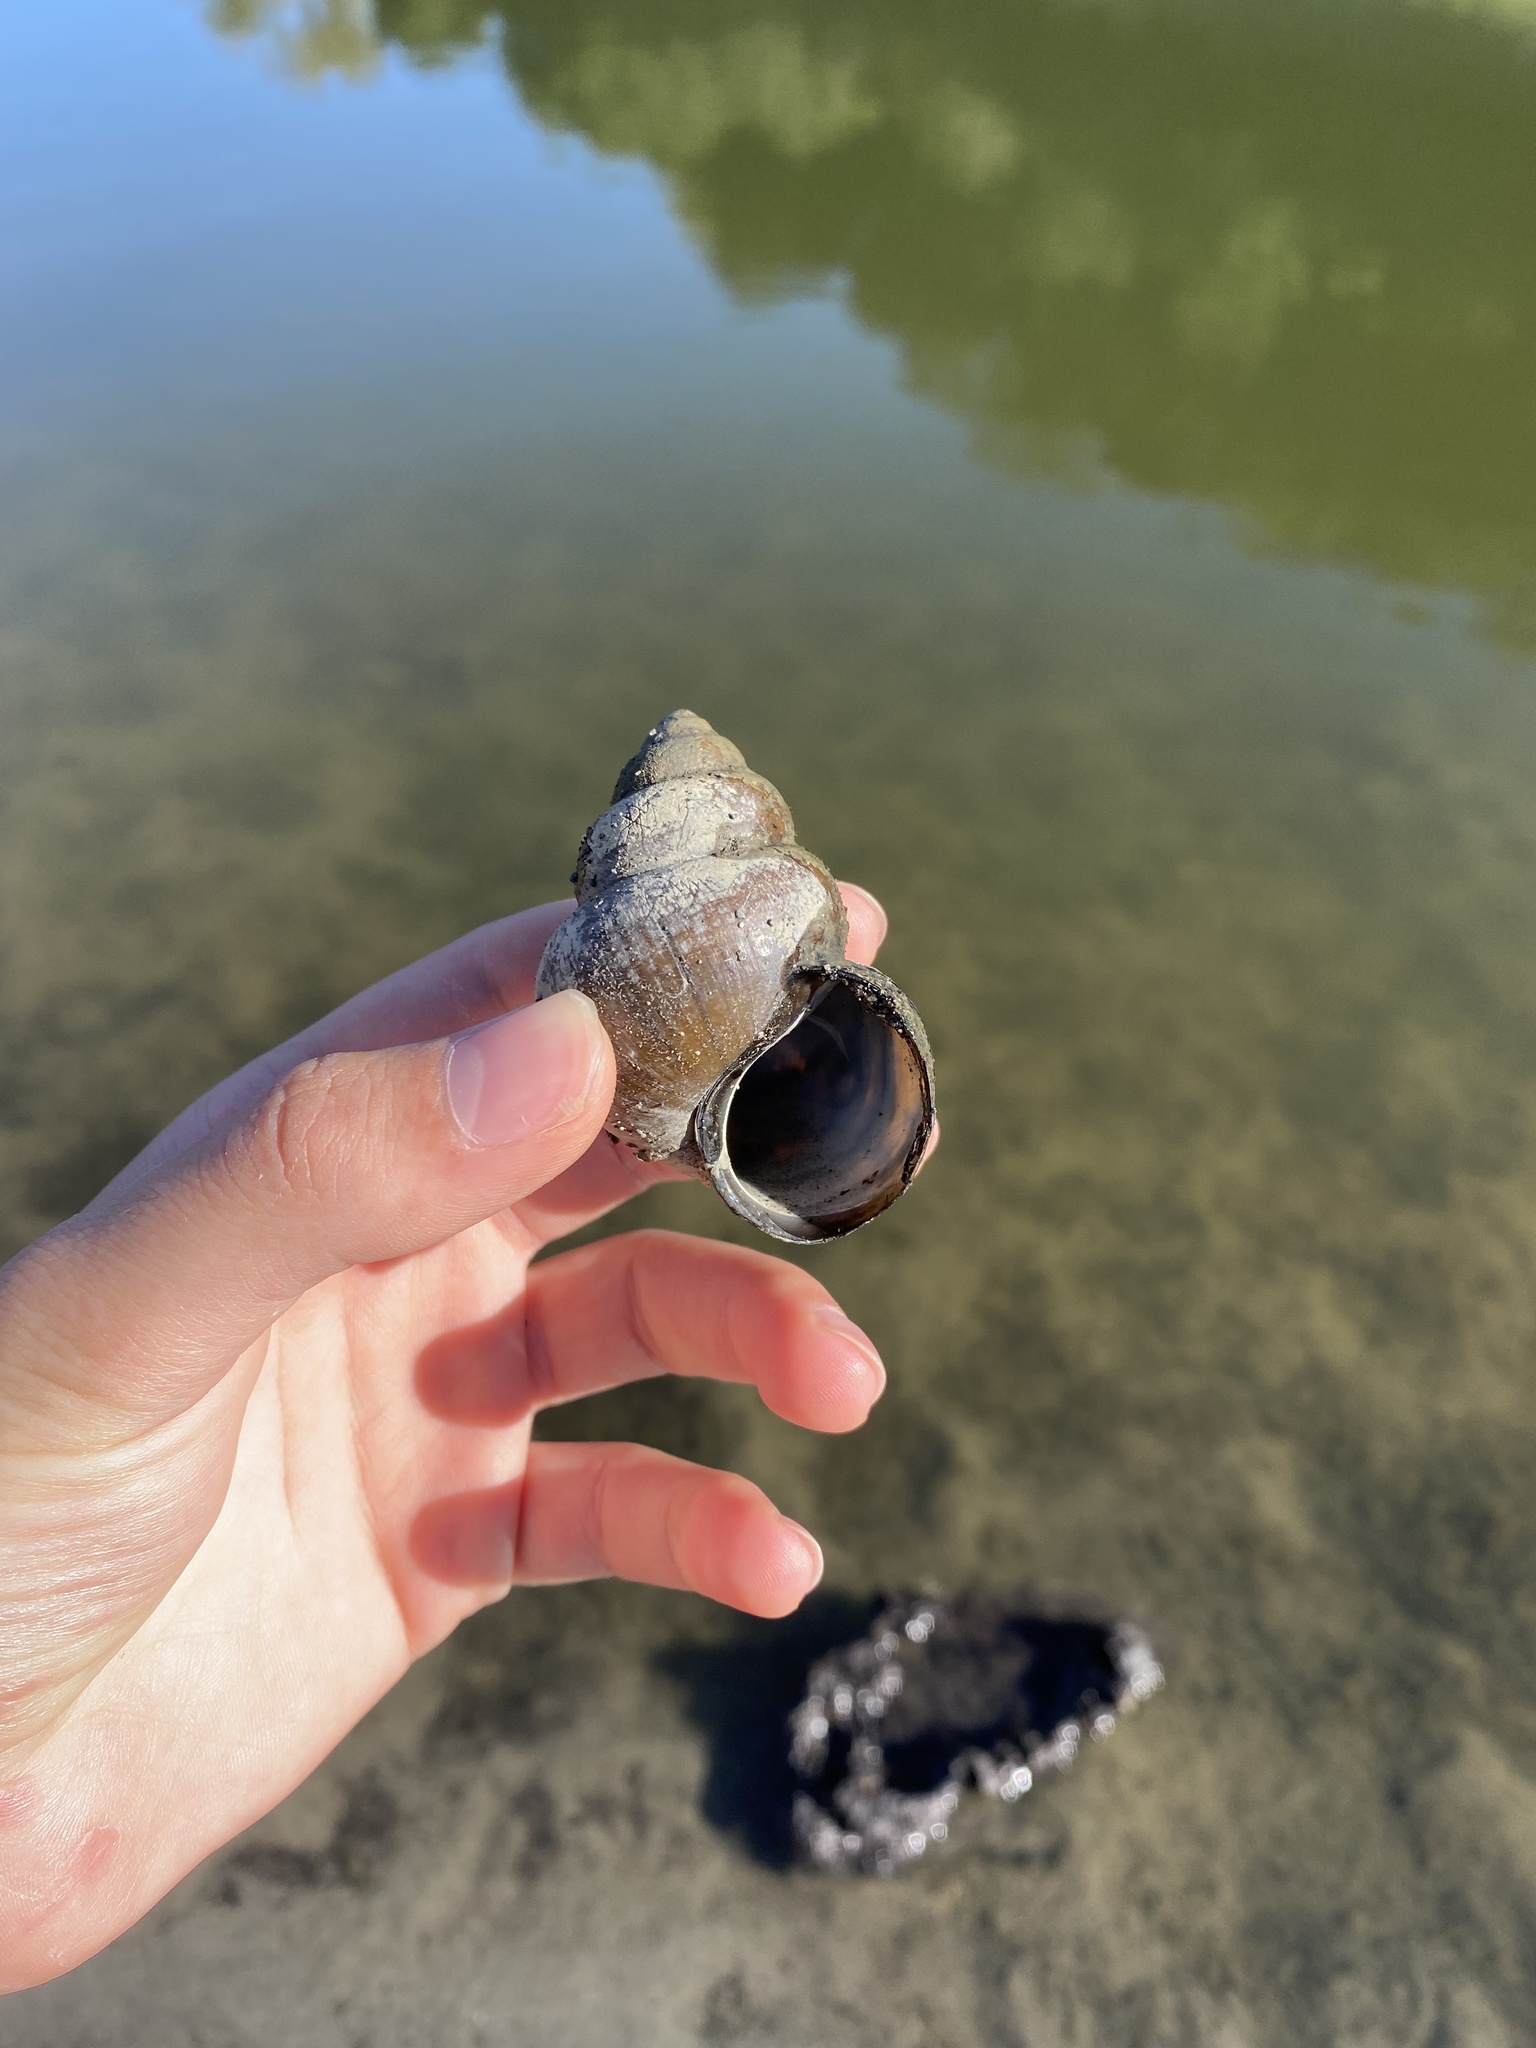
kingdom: Animalia
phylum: Mollusca
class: Gastropoda
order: Architaenioglossa
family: Viviparidae
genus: Cipangopaludina
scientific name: Cipangopaludina chinensis
